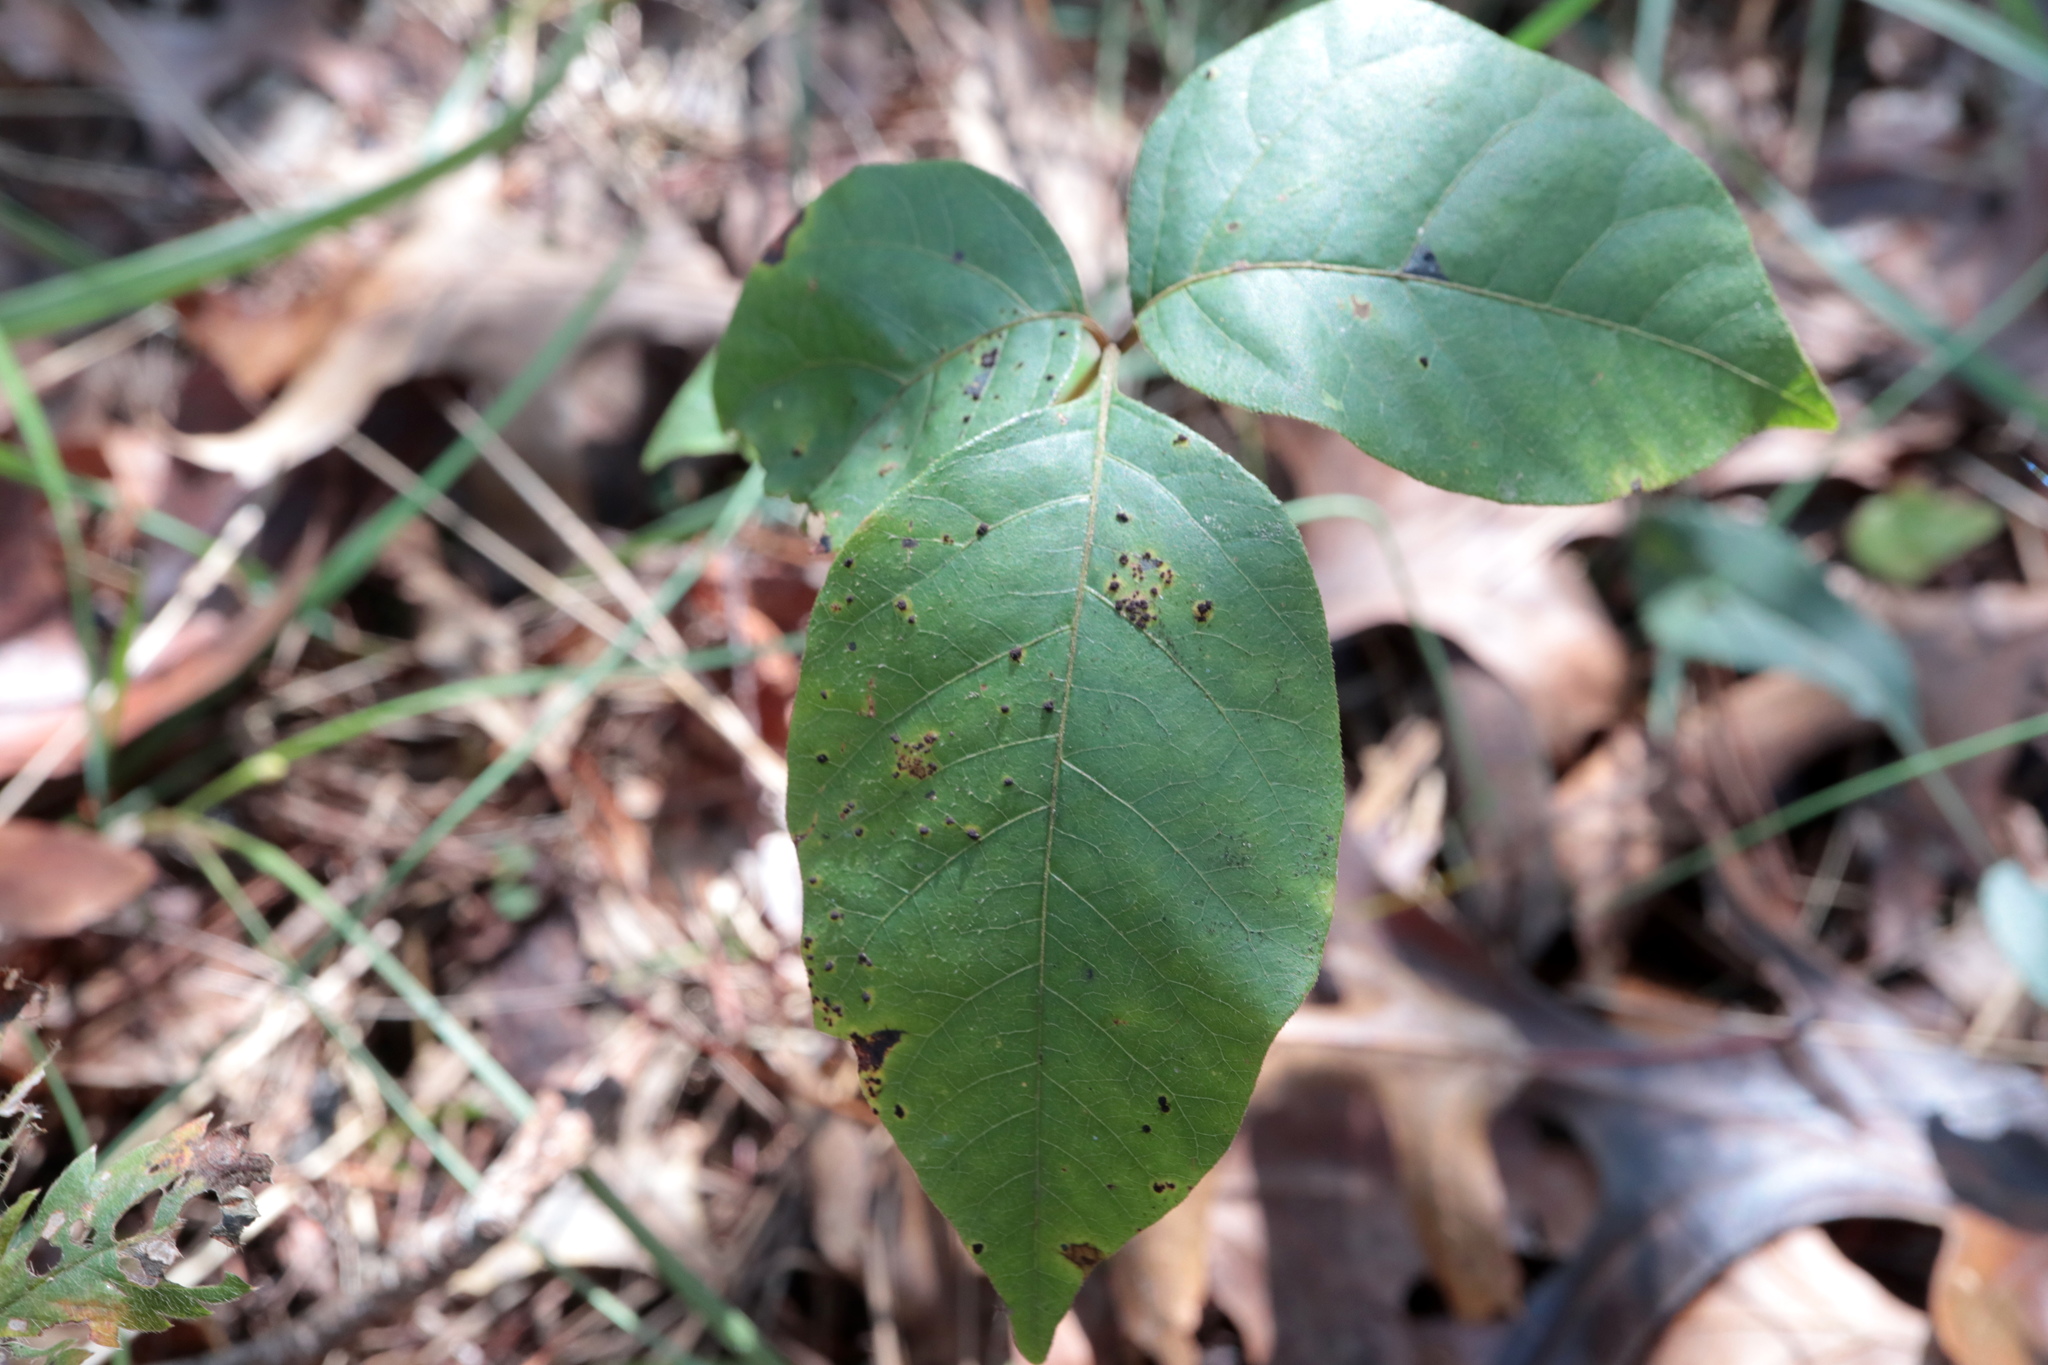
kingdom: Animalia
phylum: Arthropoda
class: Arachnida
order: Trombidiformes
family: Eriophyidae
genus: Aculops
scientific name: Aculops
